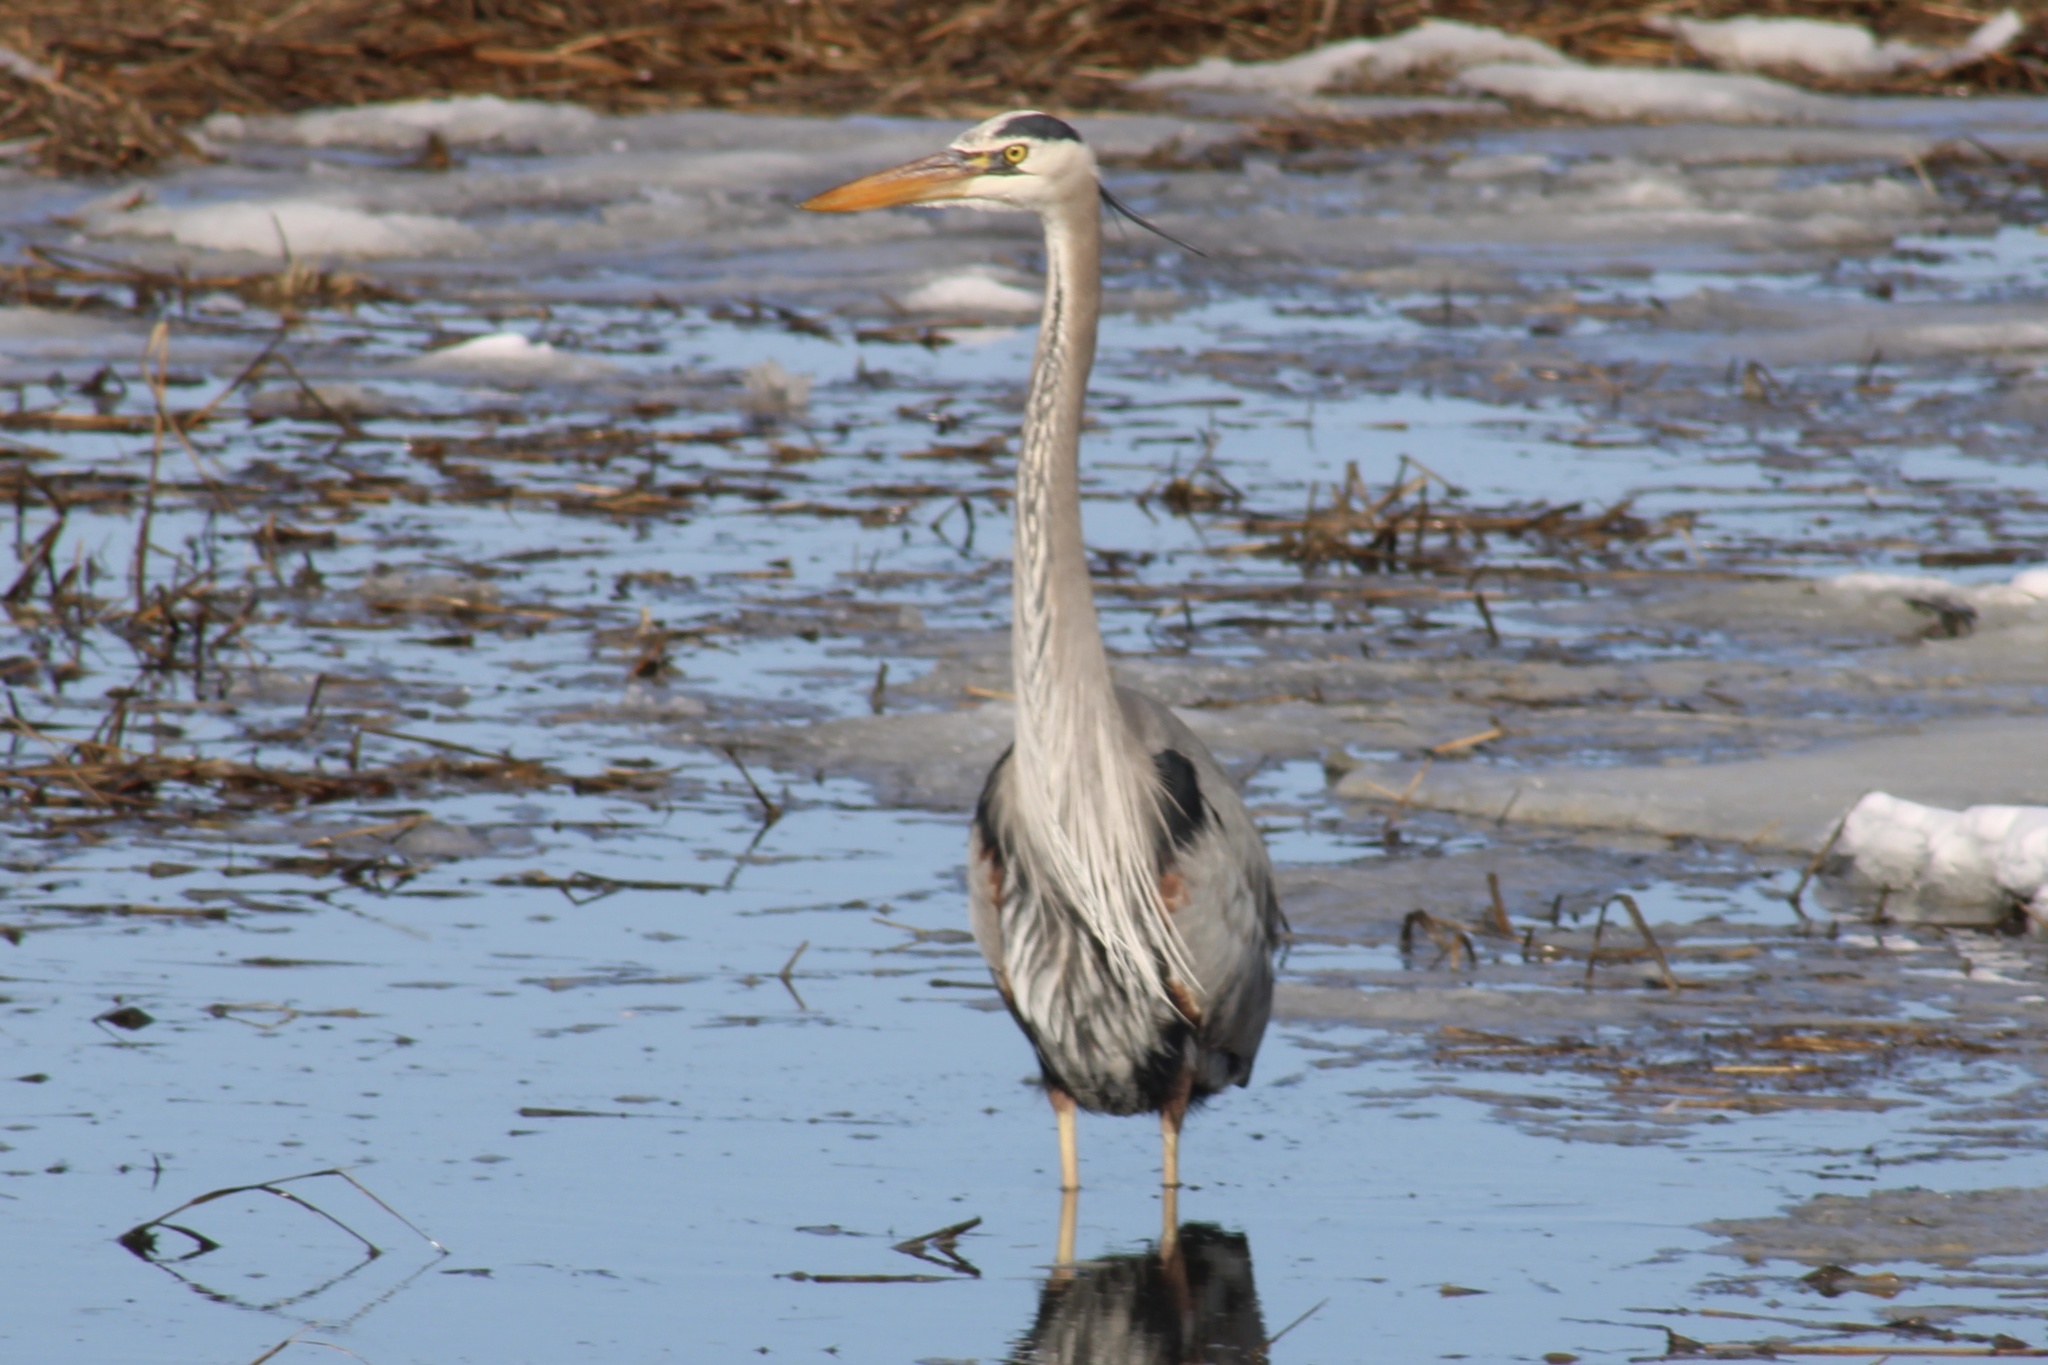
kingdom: Animalia
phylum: Chordata
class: Aves
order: Pelecaniformes
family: Ardeidae
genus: Ardea
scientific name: Ardea herodias
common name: Great blue heron
